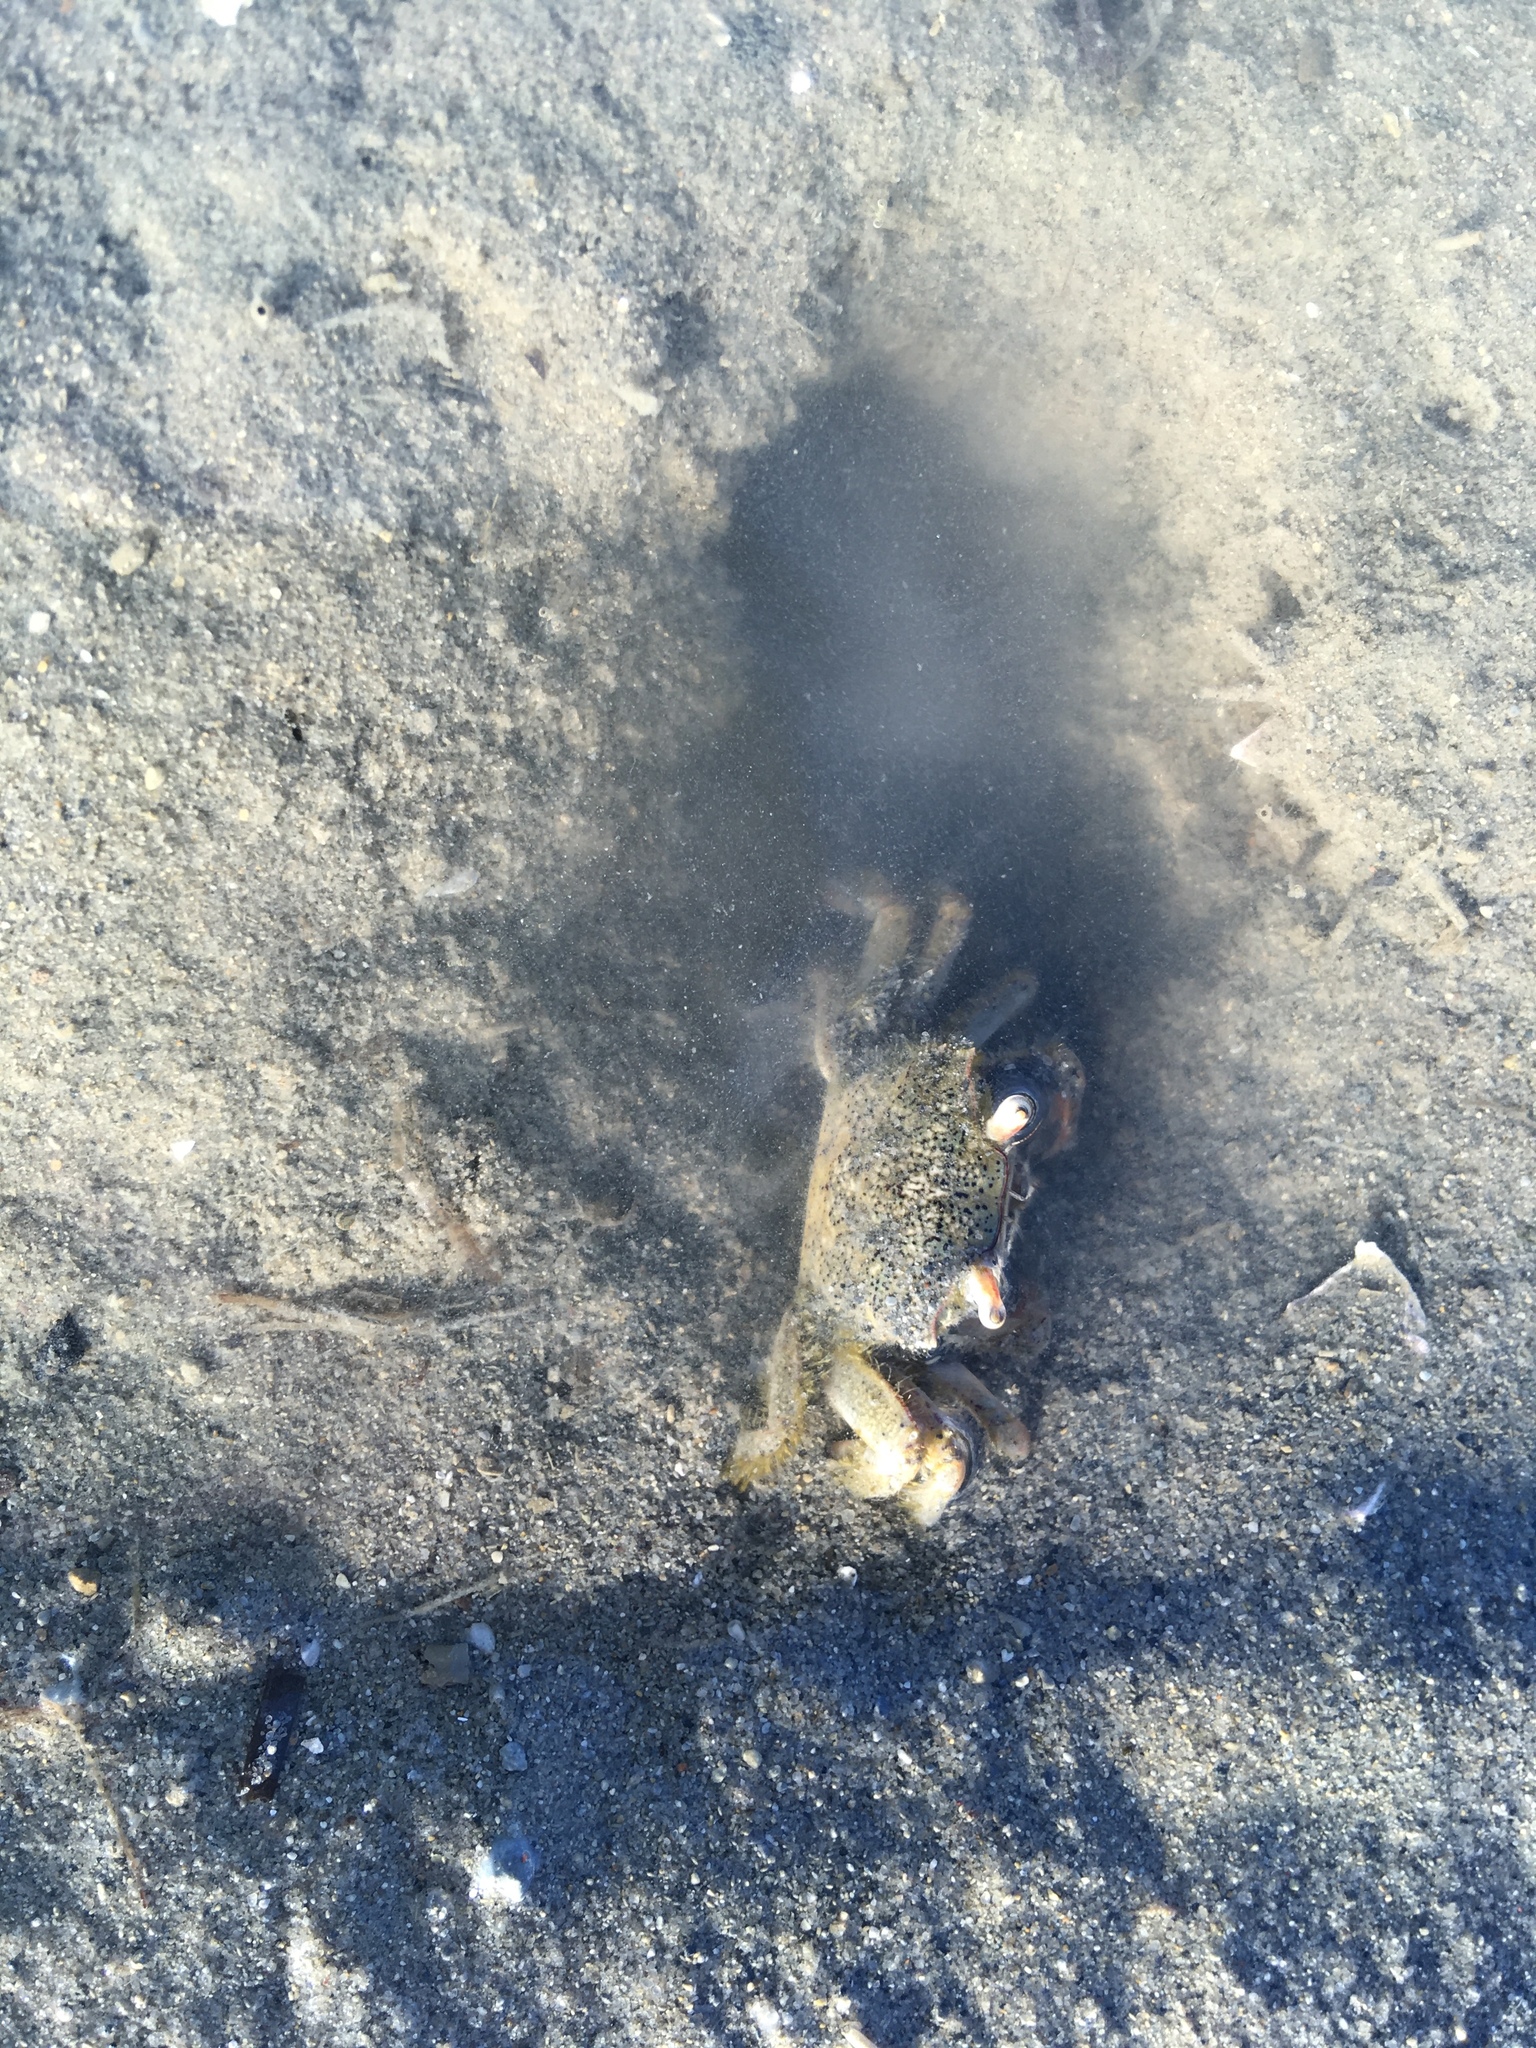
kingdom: Animalia
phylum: Arthropoda
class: Malacostraca
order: Decapoda
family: Macrophthalmidae
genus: Hemiplax
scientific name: Hemiplax hirtipes
